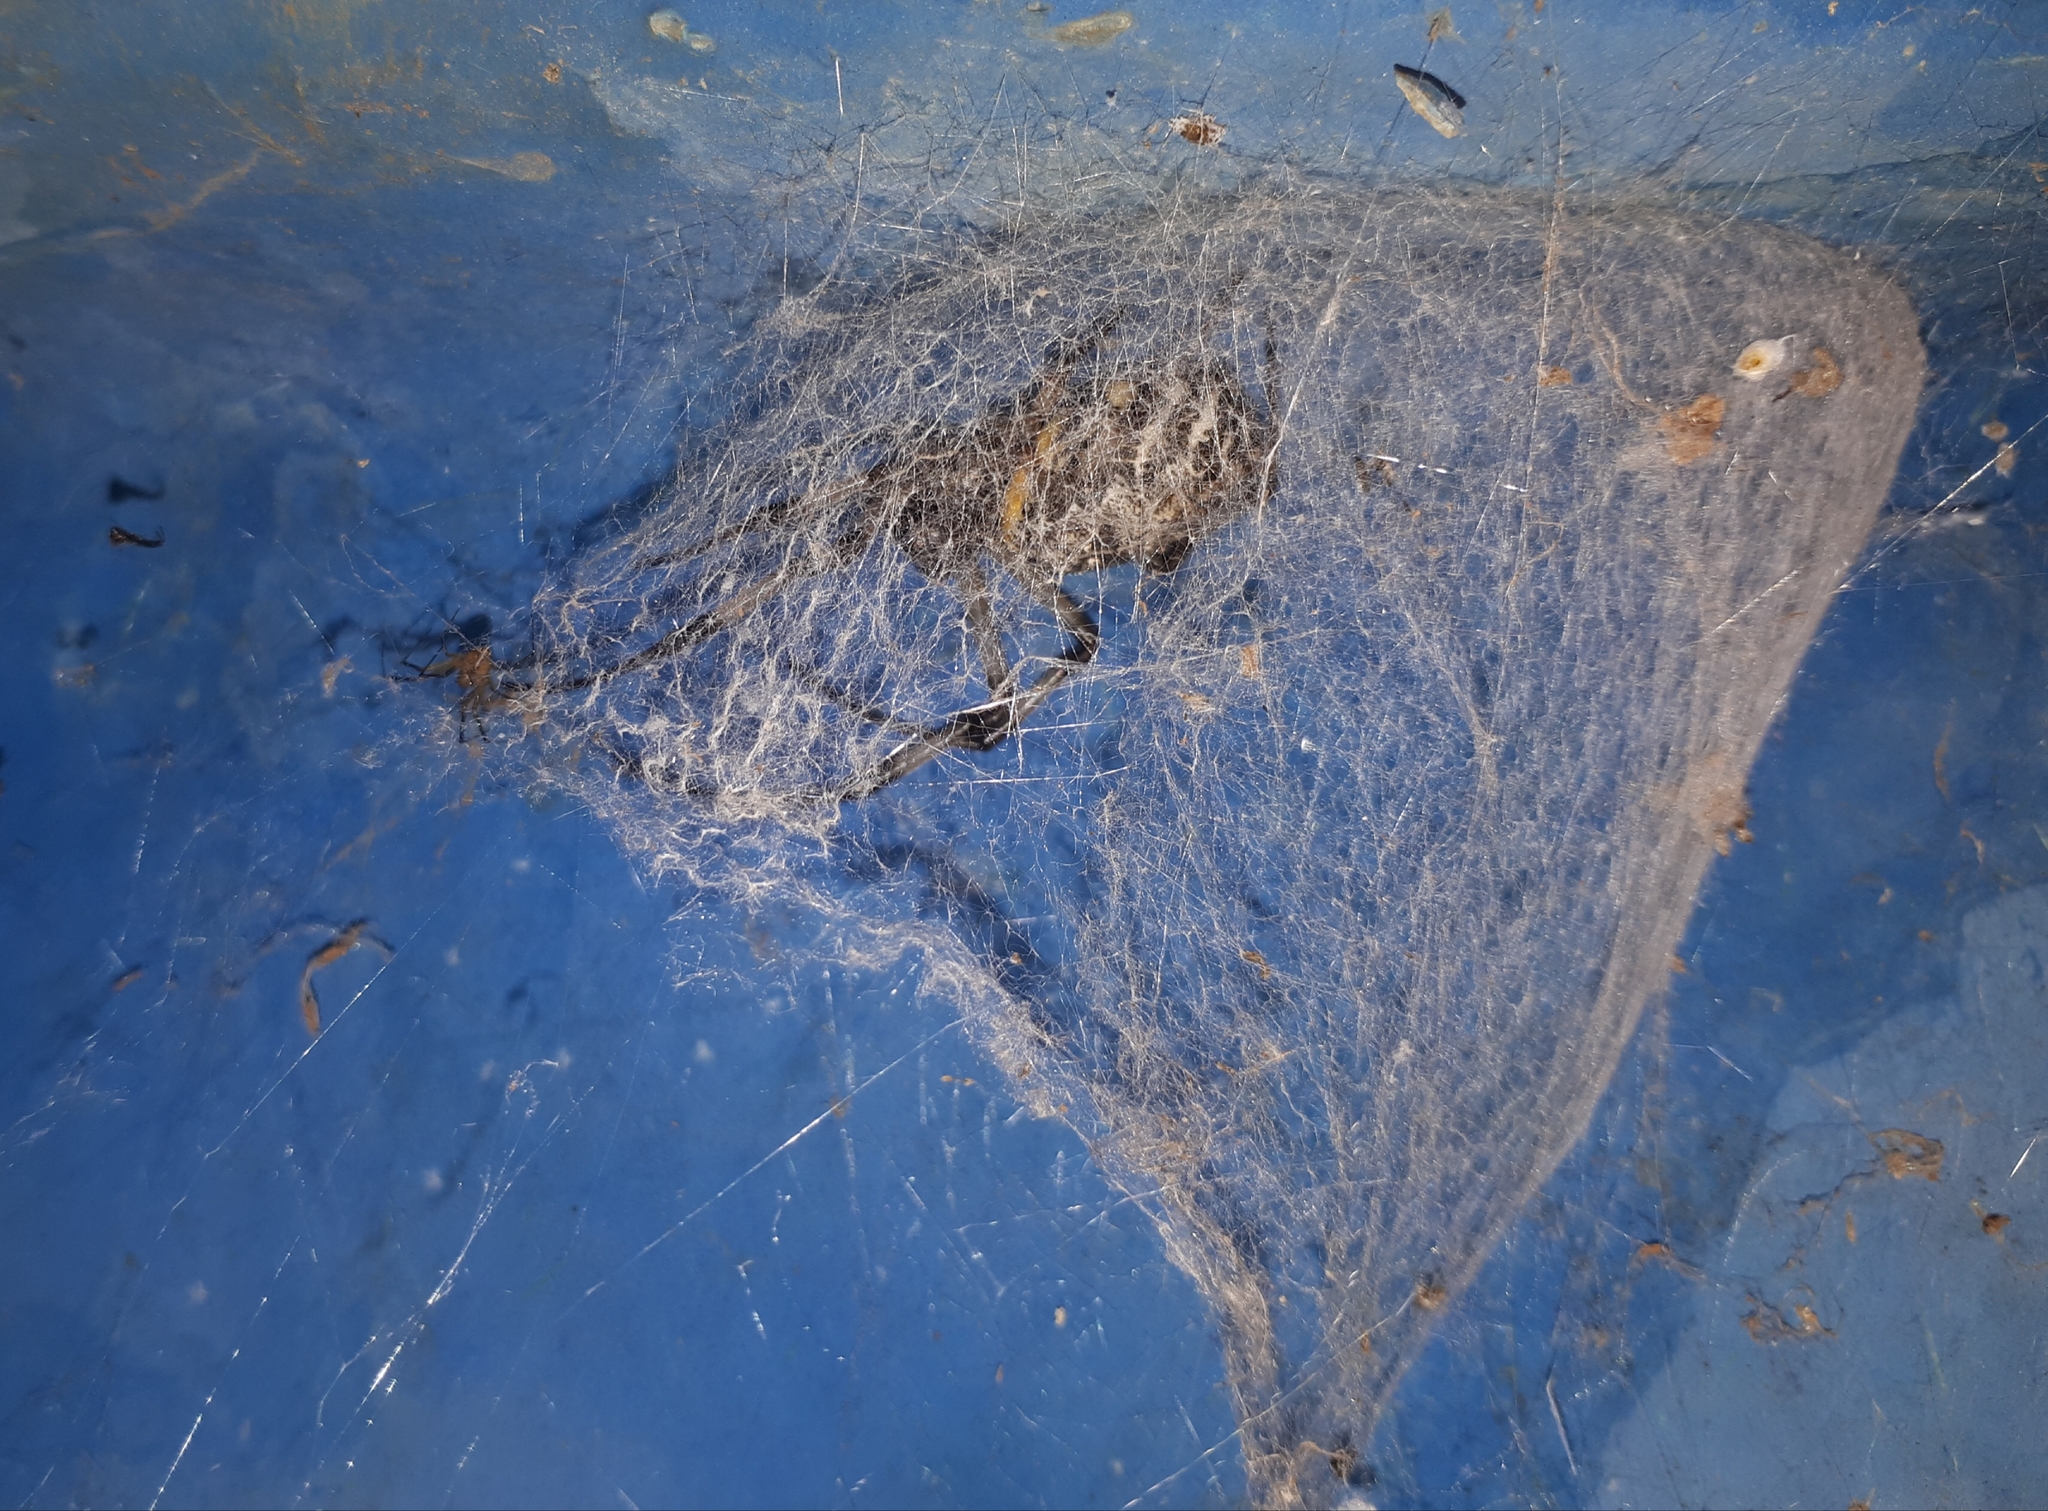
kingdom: Animalia
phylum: Arthropoda
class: Arachnida
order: Araneae
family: Araneidae
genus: Nephilingis
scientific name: Nephilingis cruentata
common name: African hermit spider
